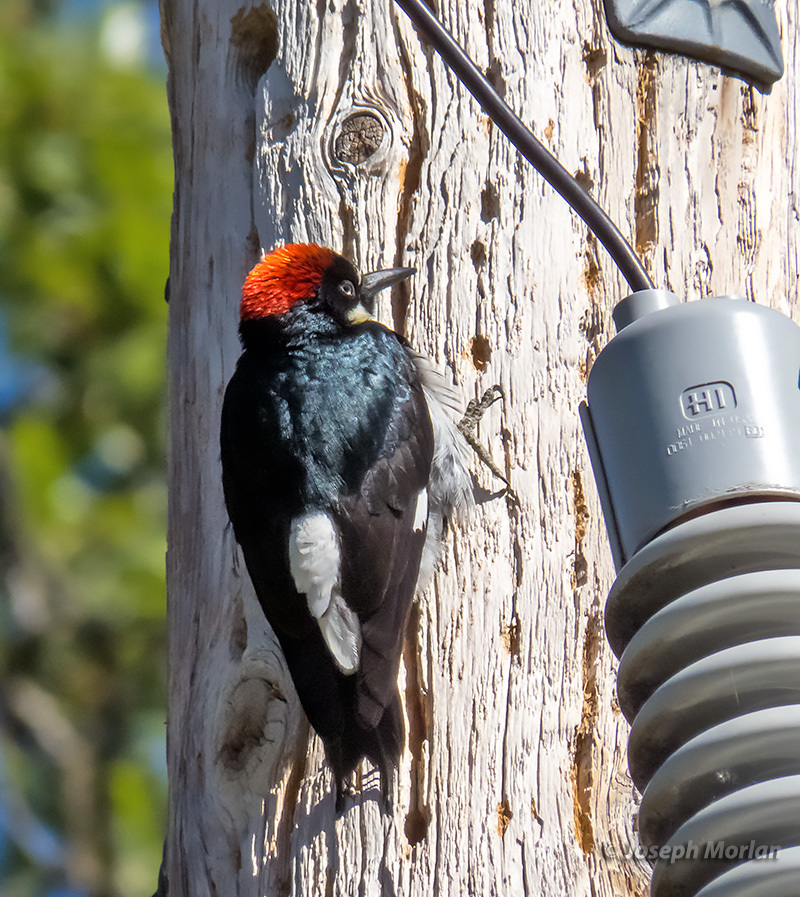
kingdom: Animalia
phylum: Chordata
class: Aves
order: Piciformes
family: Picidae
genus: Melanerpes
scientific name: Melanerpes formicivorus
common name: Acorn woodpecker
